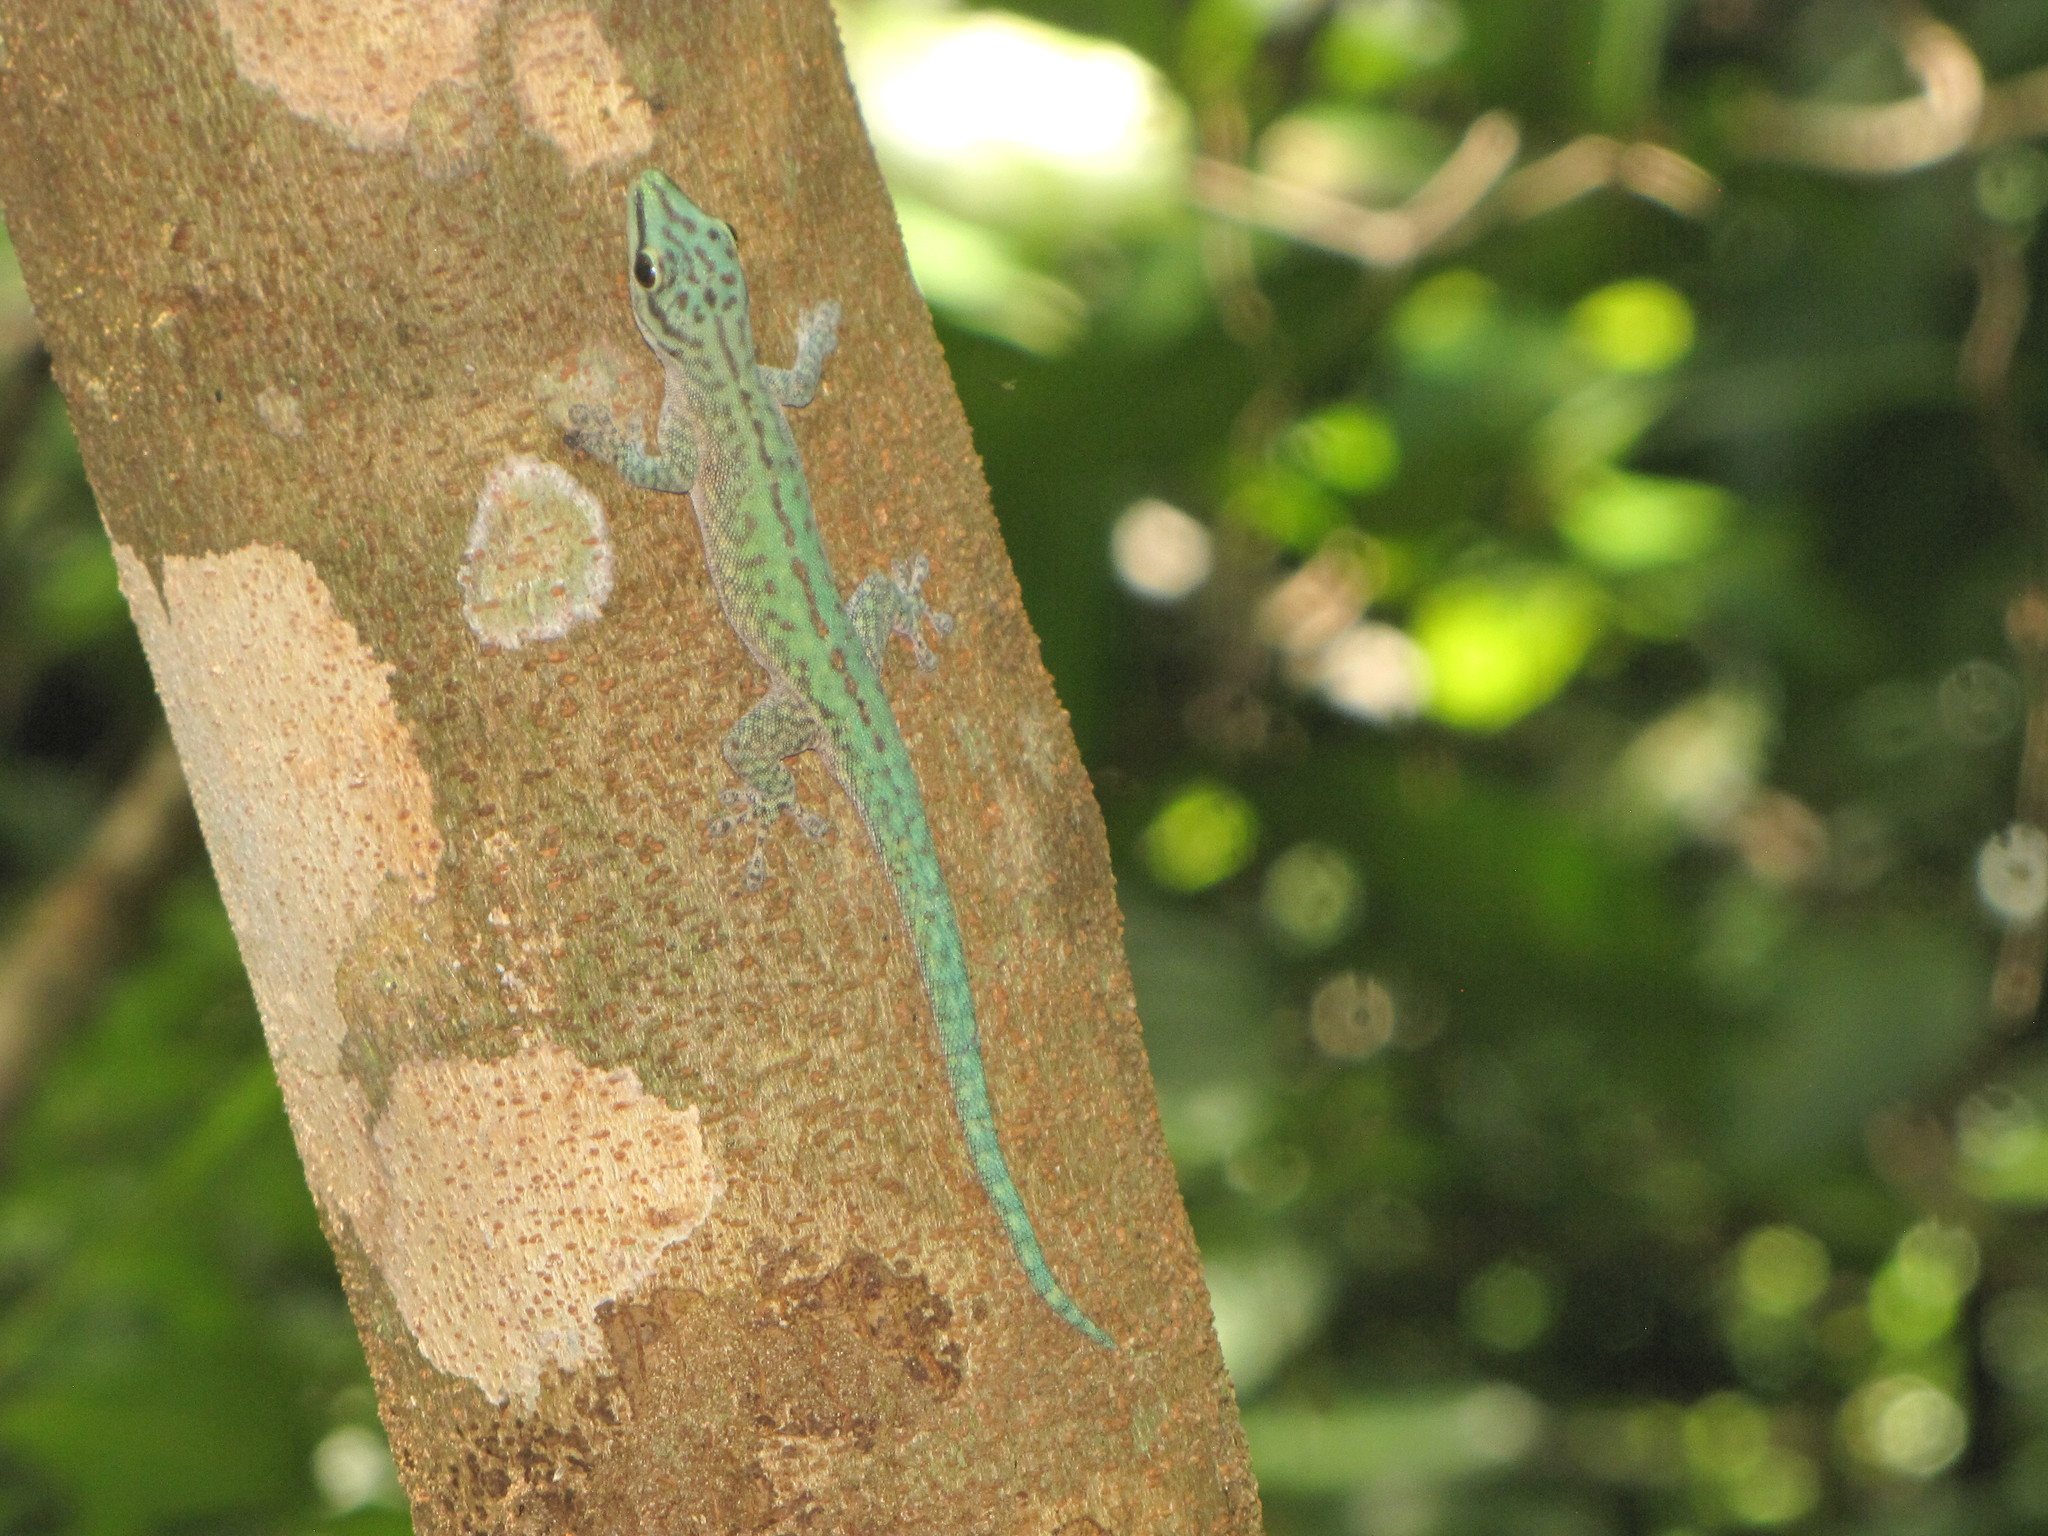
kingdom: Animalia
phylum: Chordata
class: Squamata
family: Gekkonidae
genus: Phelsuma
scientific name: Phelsuma abbotti
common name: Aldabra day gecko
